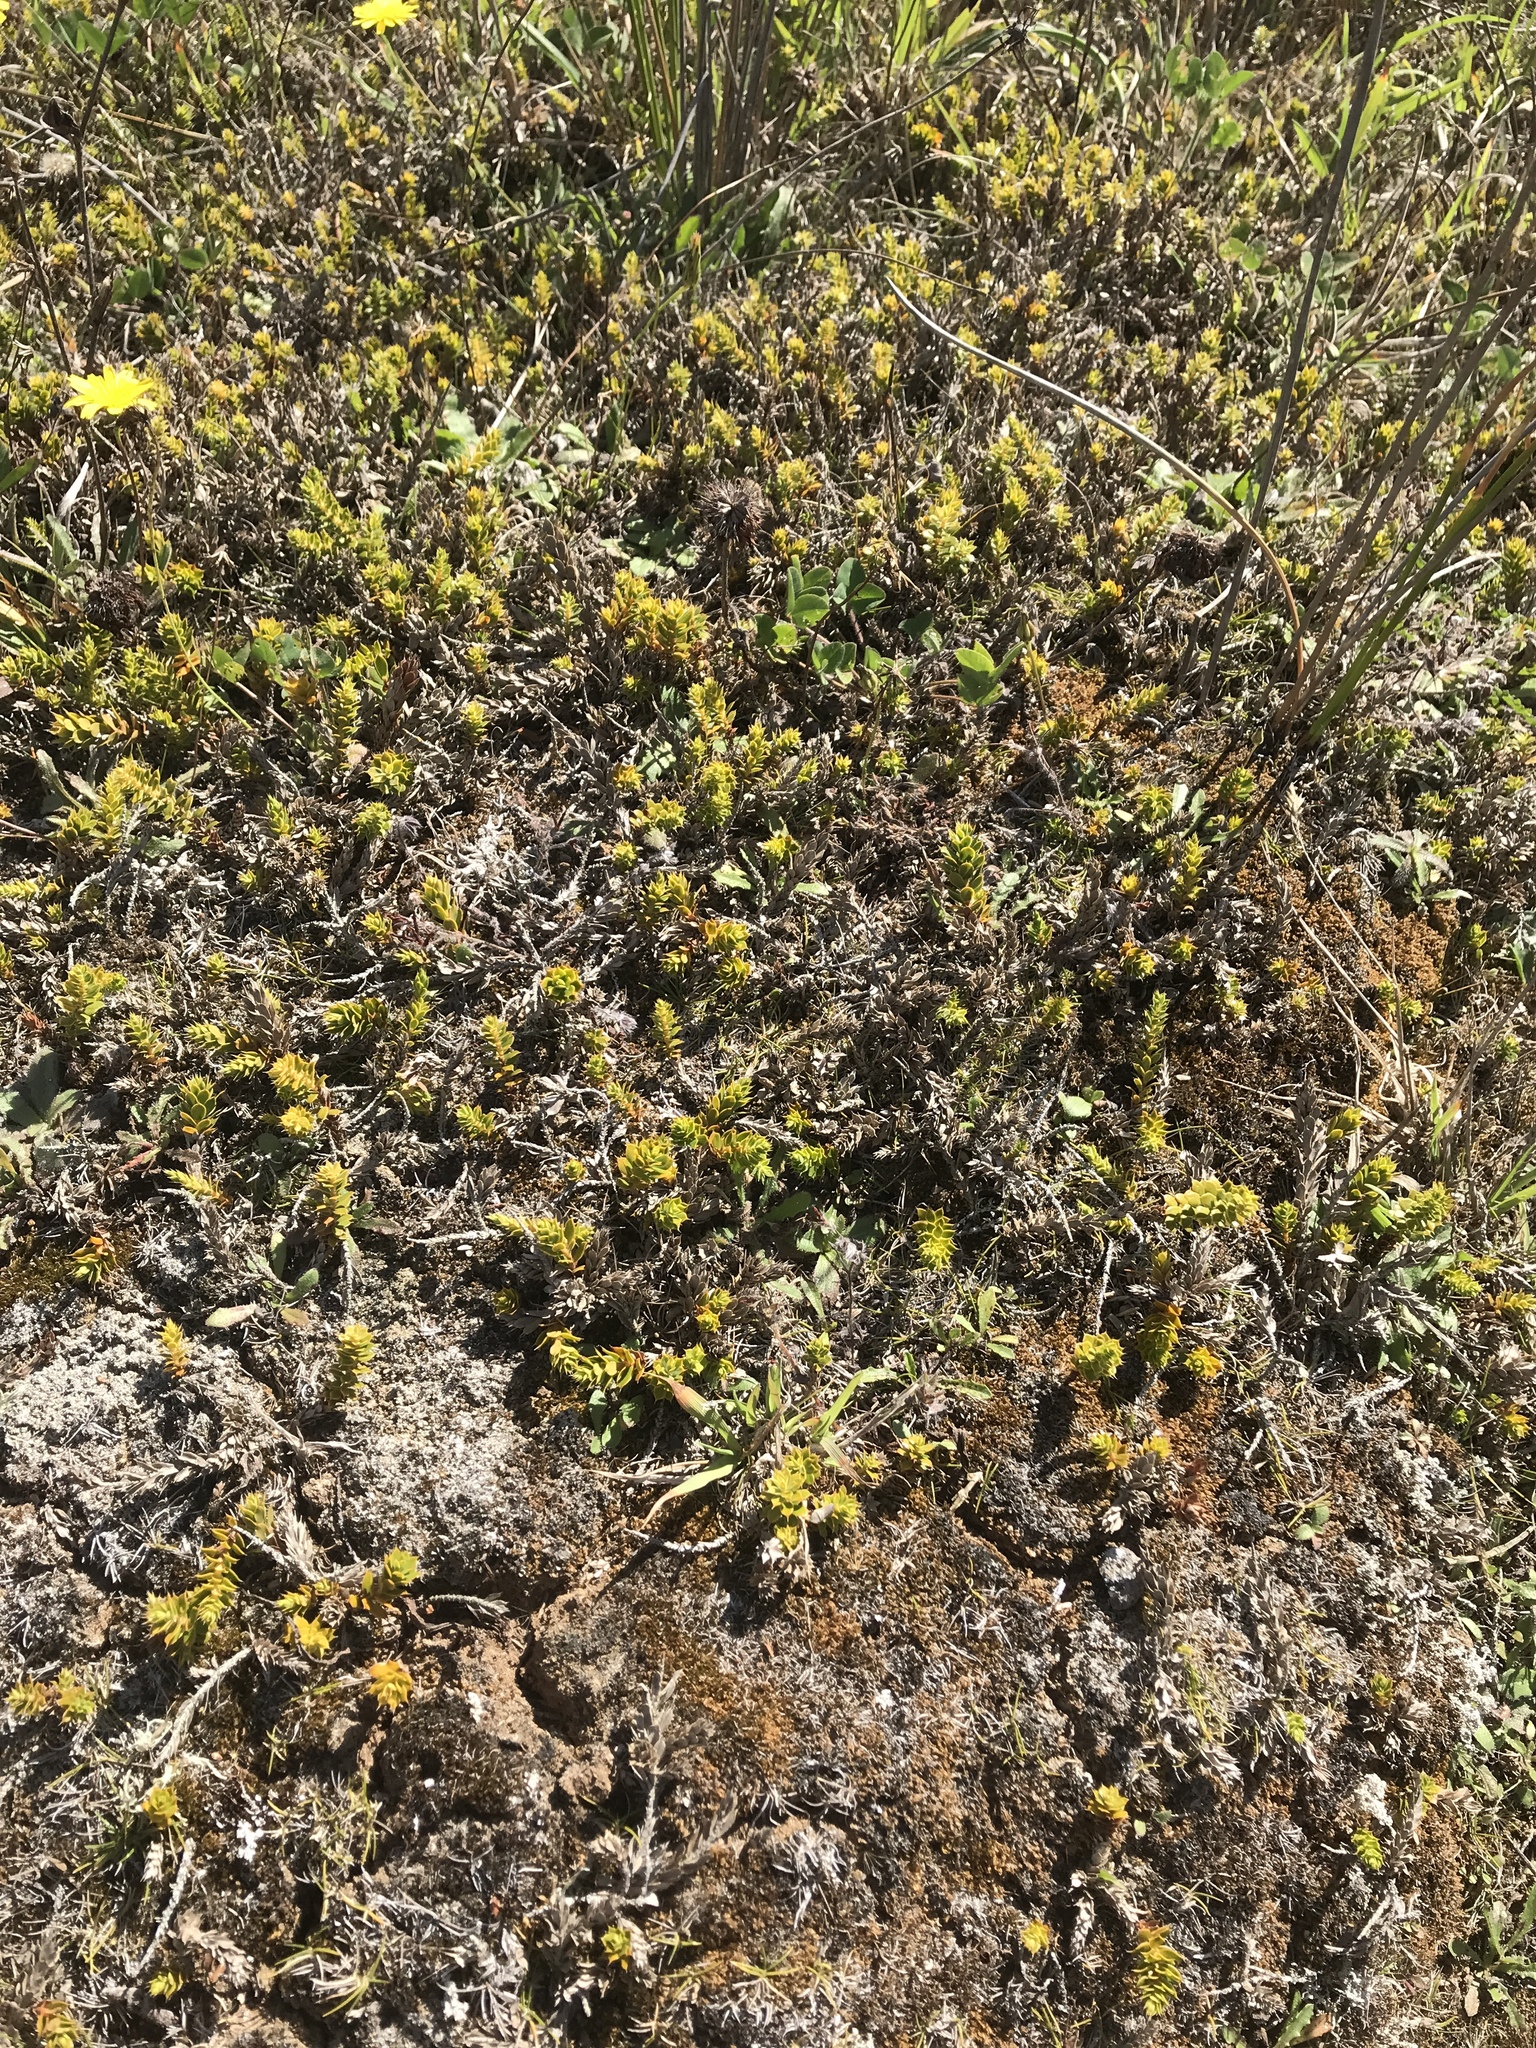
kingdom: Plantae
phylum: Tracheophyta
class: Magnoliopsida
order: Ericales
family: Ericaceae
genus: Styphelia
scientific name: Styphelia nesophila
